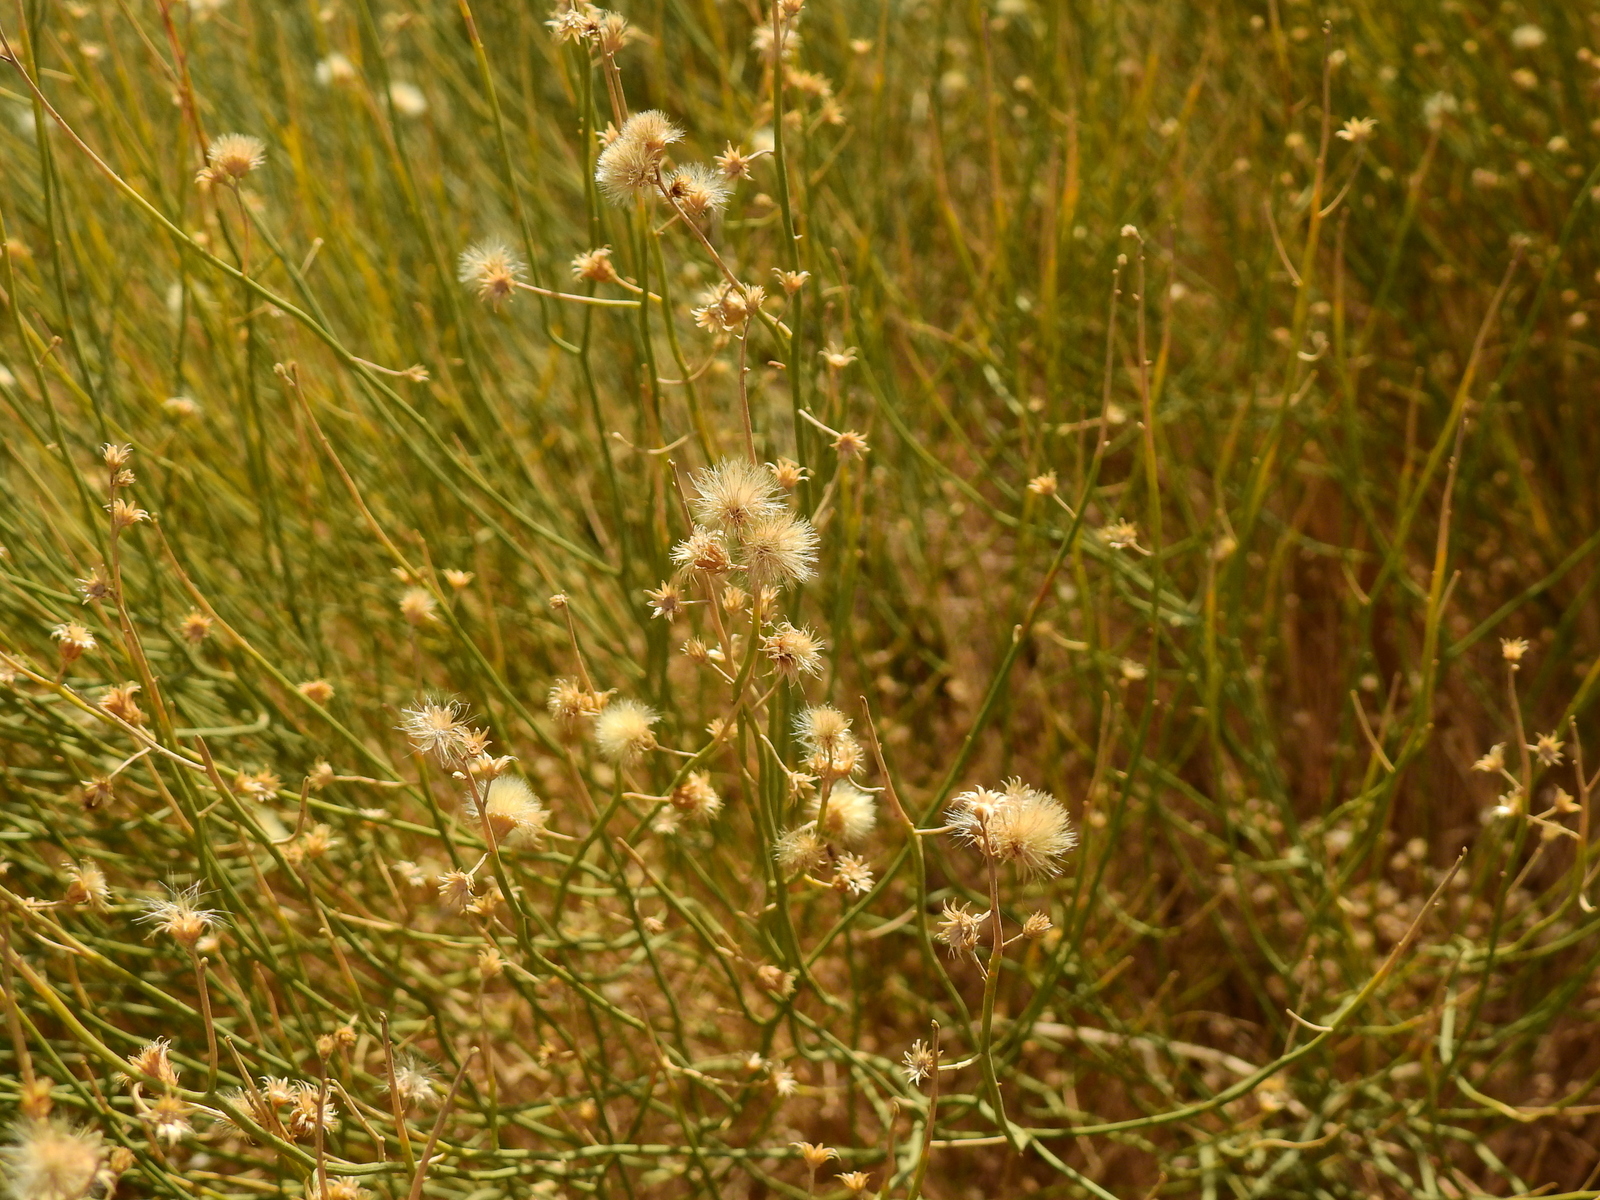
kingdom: Plantae
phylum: Tracheophyta
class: Magnoliopsida
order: Asterales
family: Asteraceae
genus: Pseudobaccharis
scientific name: Pseudobaccharis spartioides
